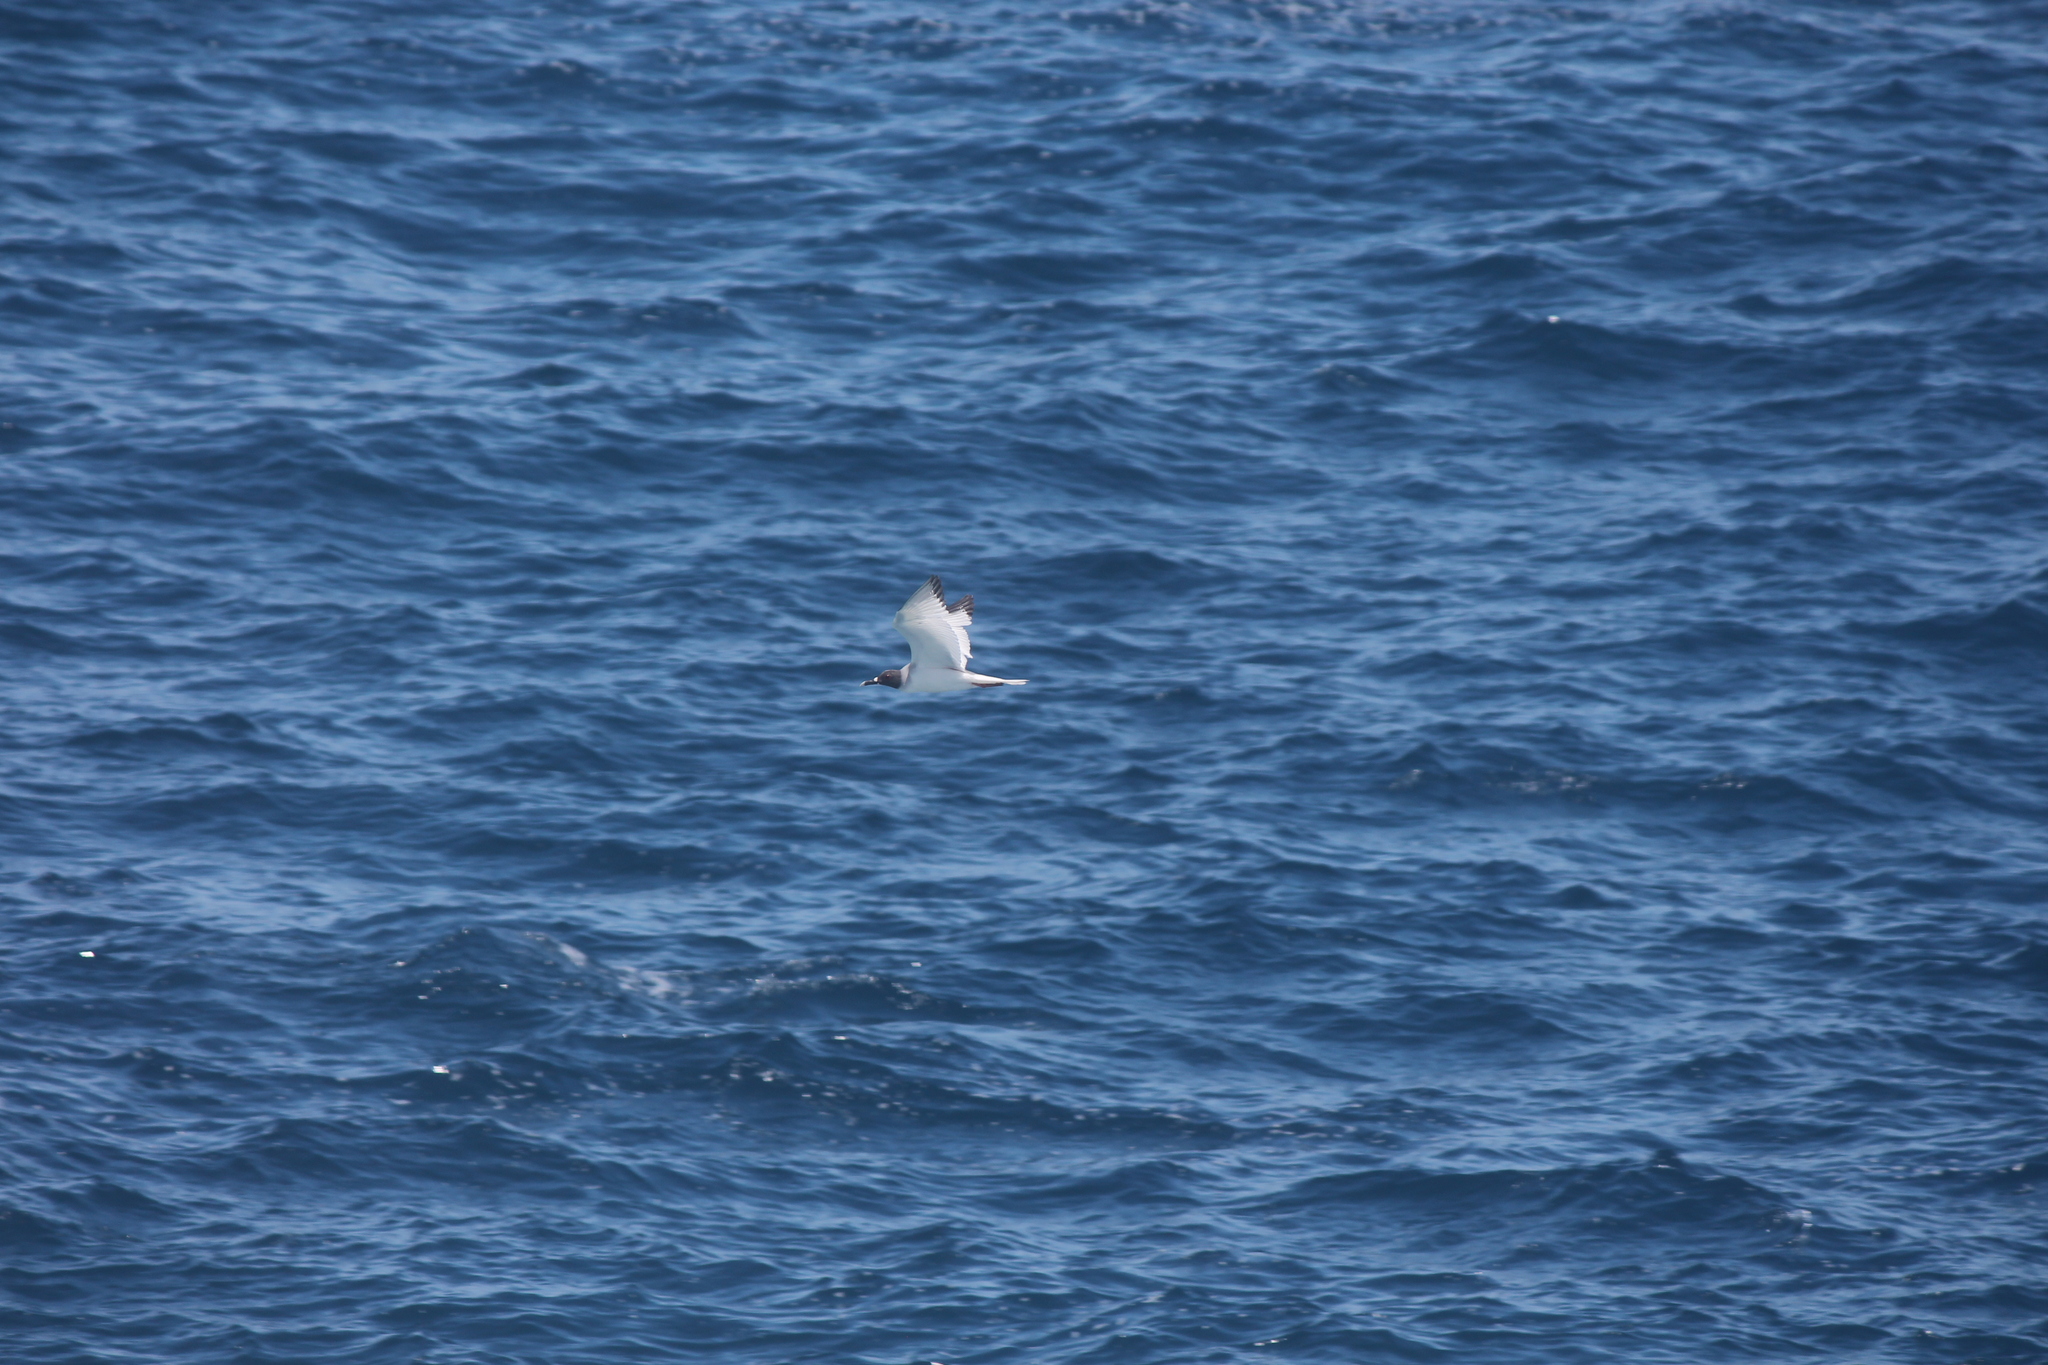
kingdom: Animalia
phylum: Chordata
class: Aves
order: Charadriiformes
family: Laridae
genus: Creagrus
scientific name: Creagrus furcatus
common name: Swallow-tailed gull
